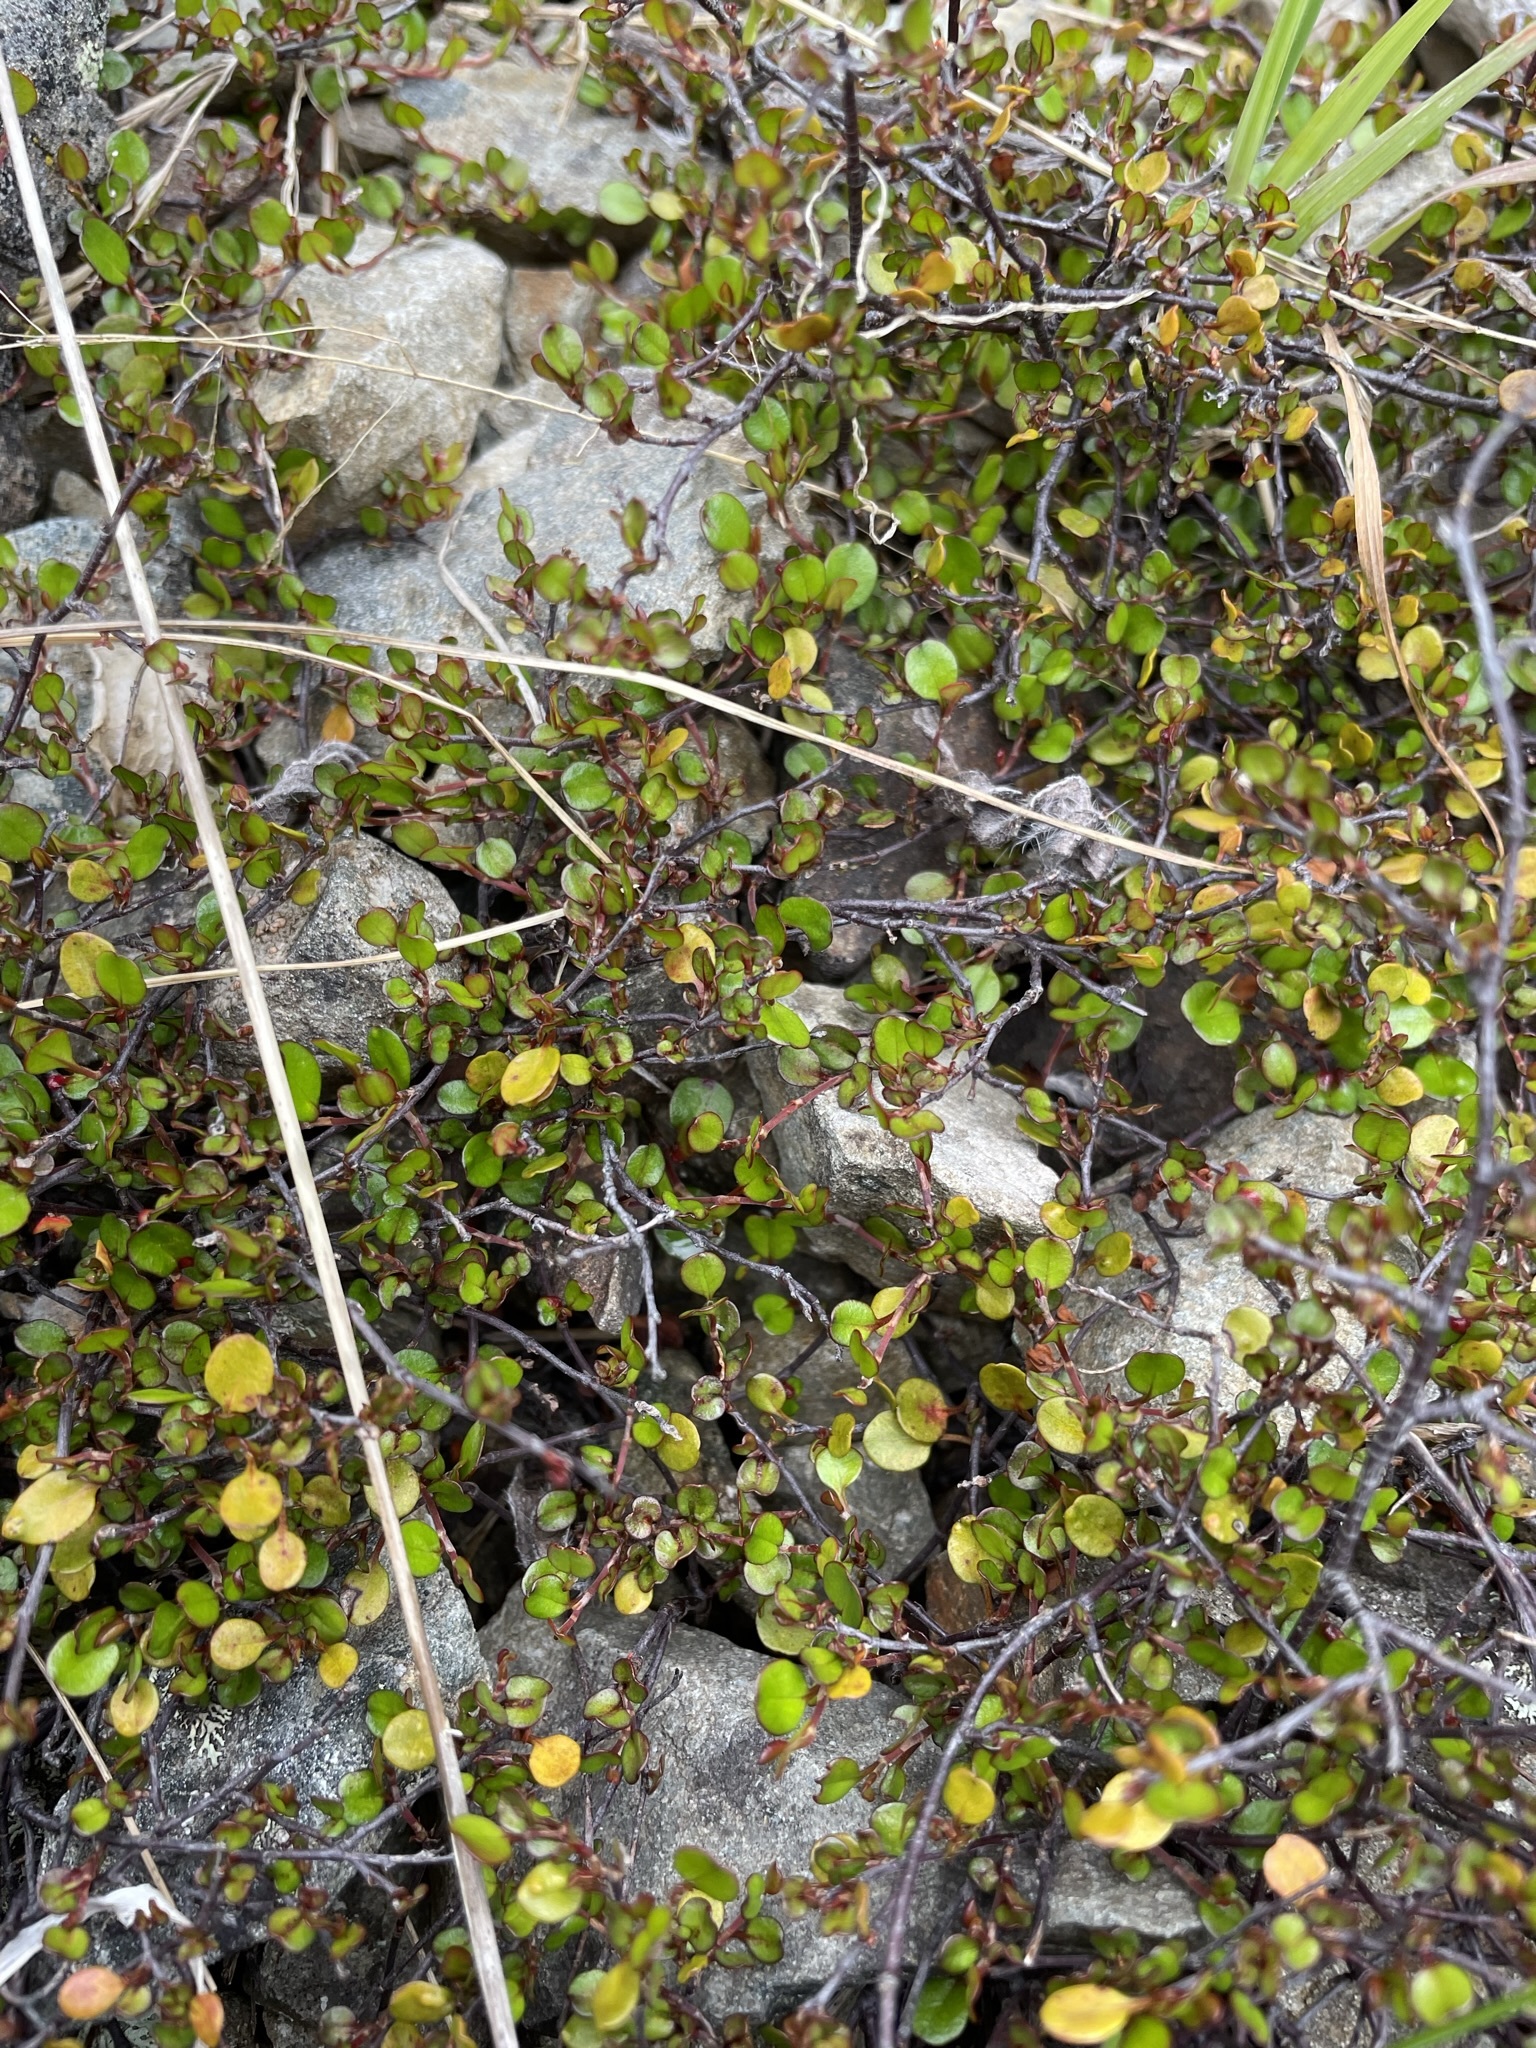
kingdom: Plantae
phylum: Tracheophyta
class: Magnoliopsida
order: Caryophyllales
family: Polygonaceae
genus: Muehlenbeckia
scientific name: Muehlenbeckia axillaris
